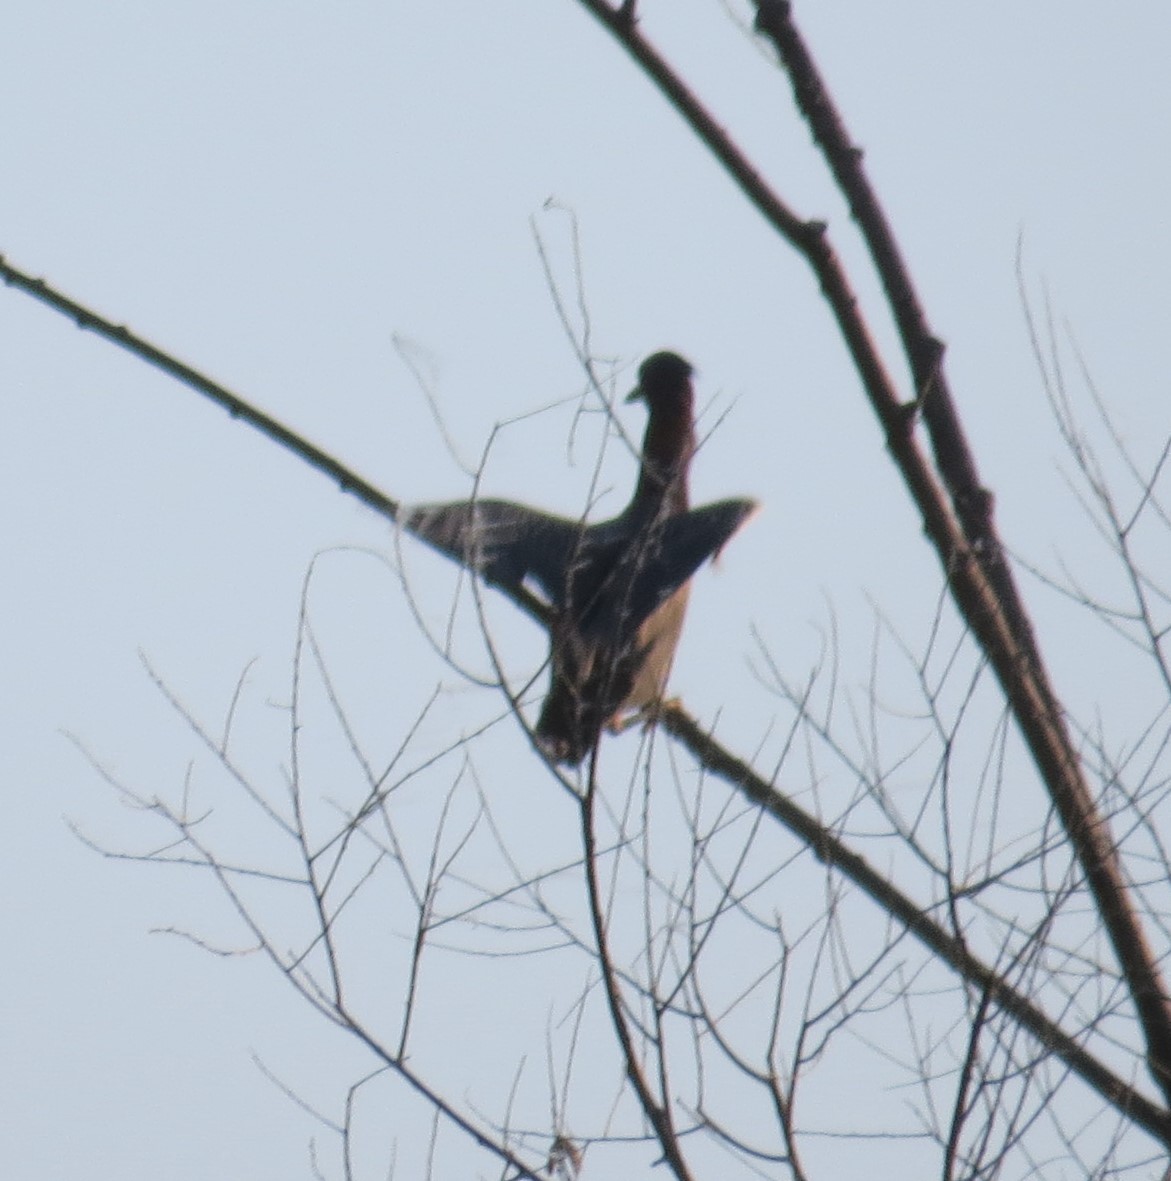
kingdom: Animalia
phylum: Chordata
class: Aves
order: Pelecaniformes
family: Ardeidae
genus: Butorides
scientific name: Butorides virescens
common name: Green heron
